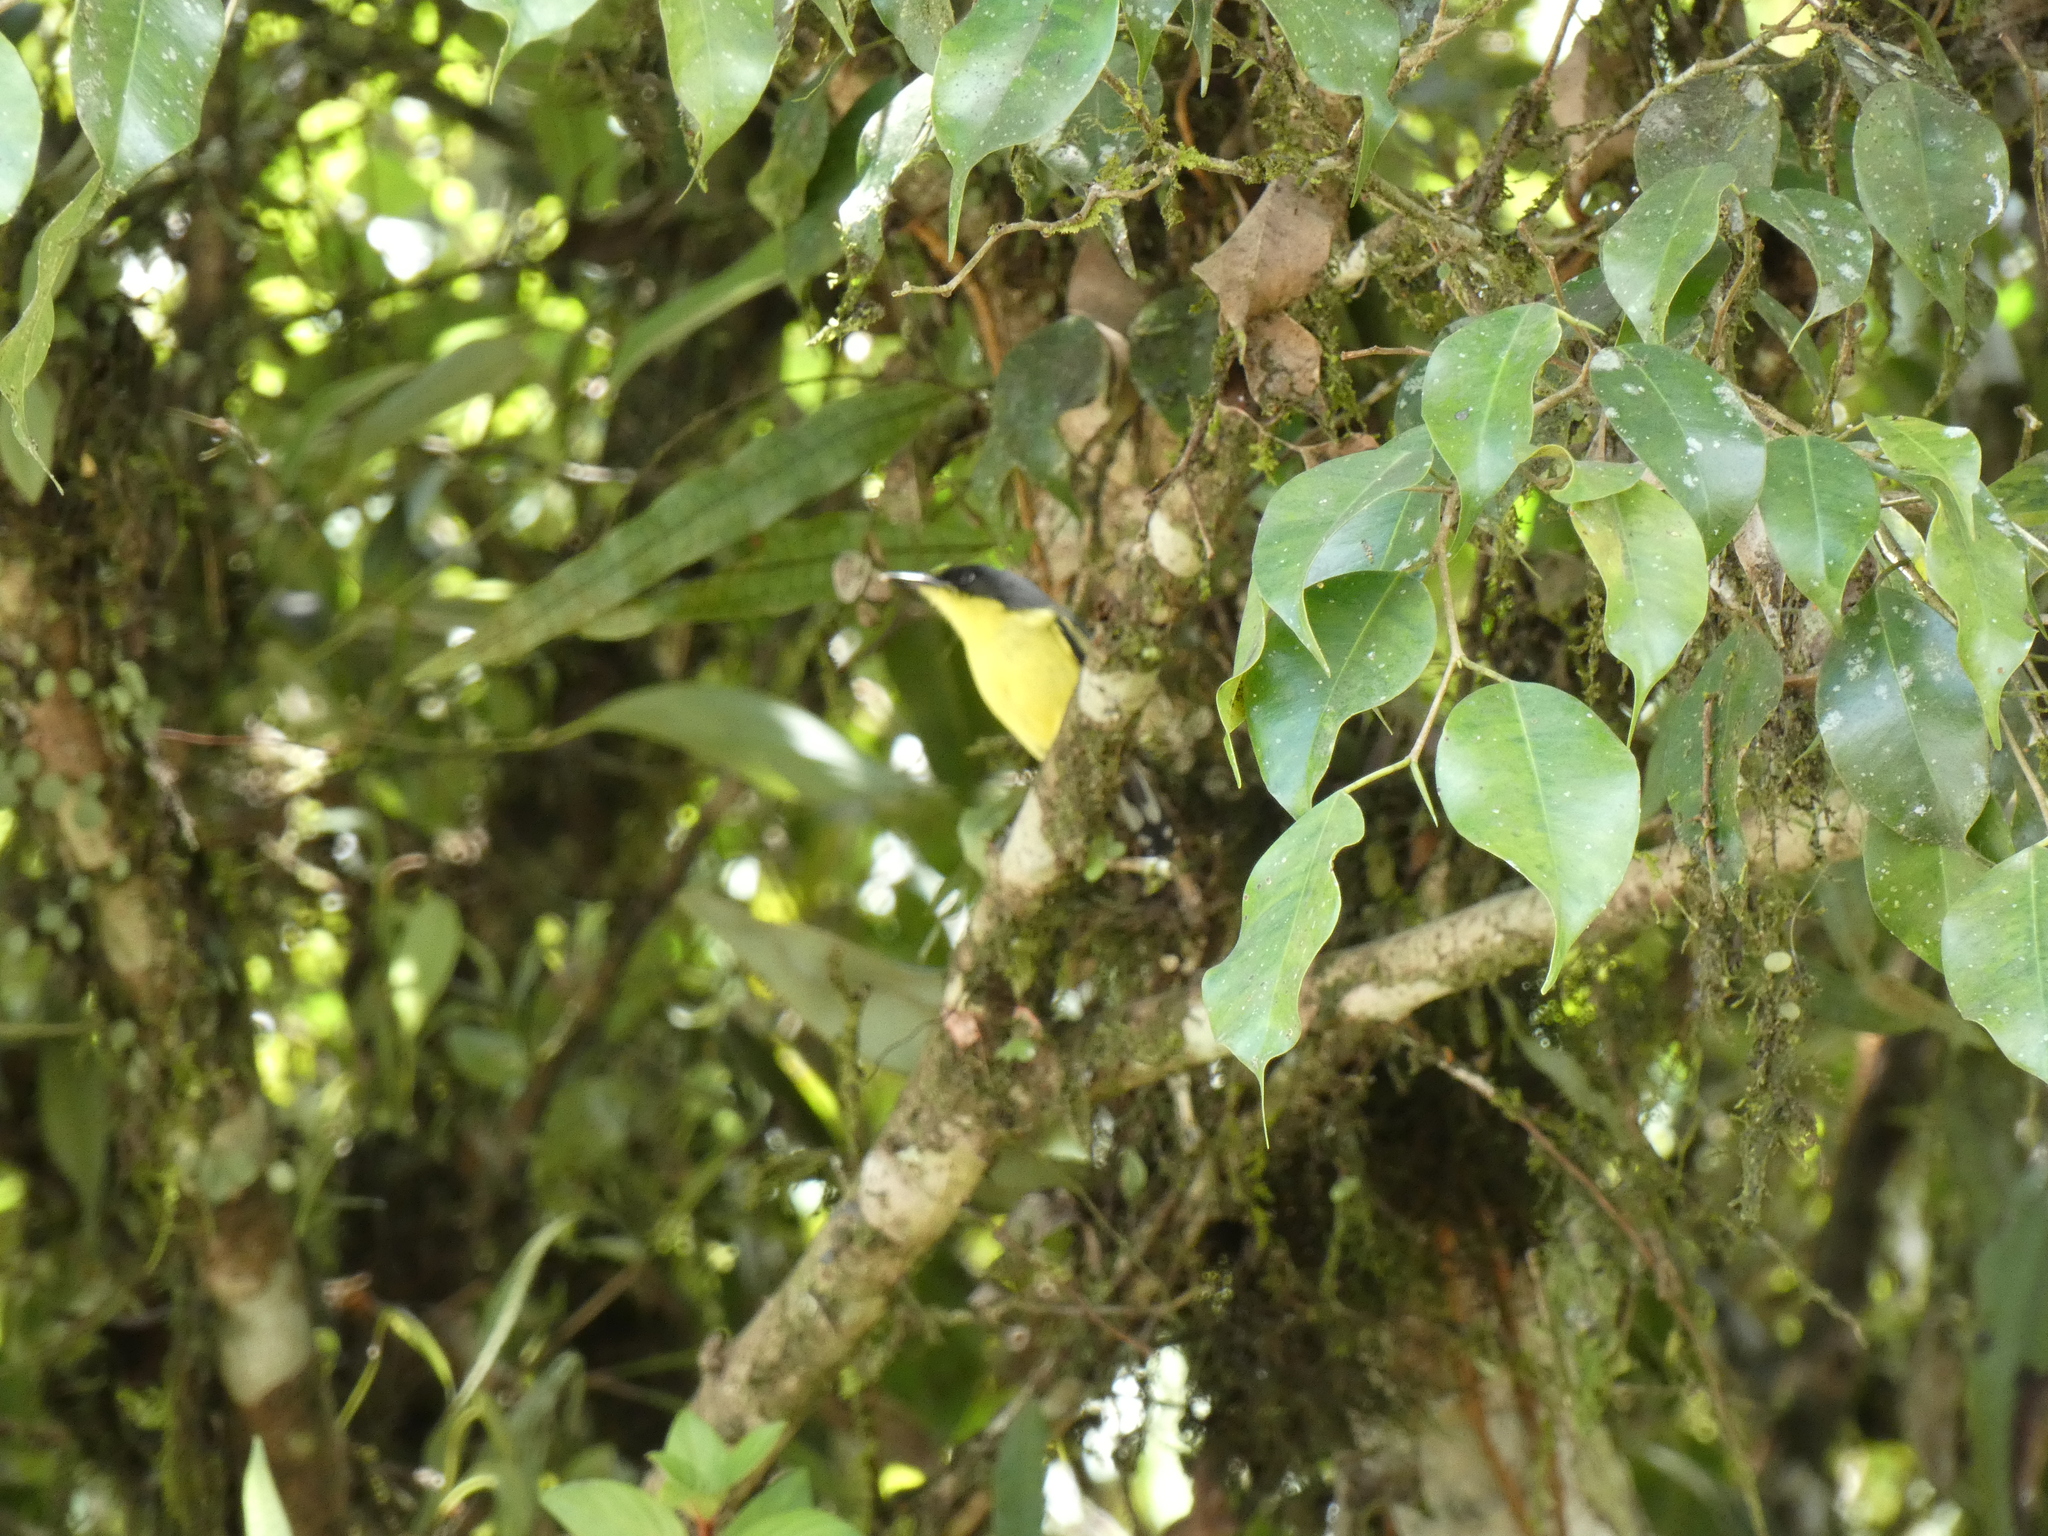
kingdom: Animalia
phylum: Chordata
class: Aves
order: Passeriformes
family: Tyrannidae
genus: Todirostrum
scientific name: Todirostrum cinereum
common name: Common tody-flycatcher
